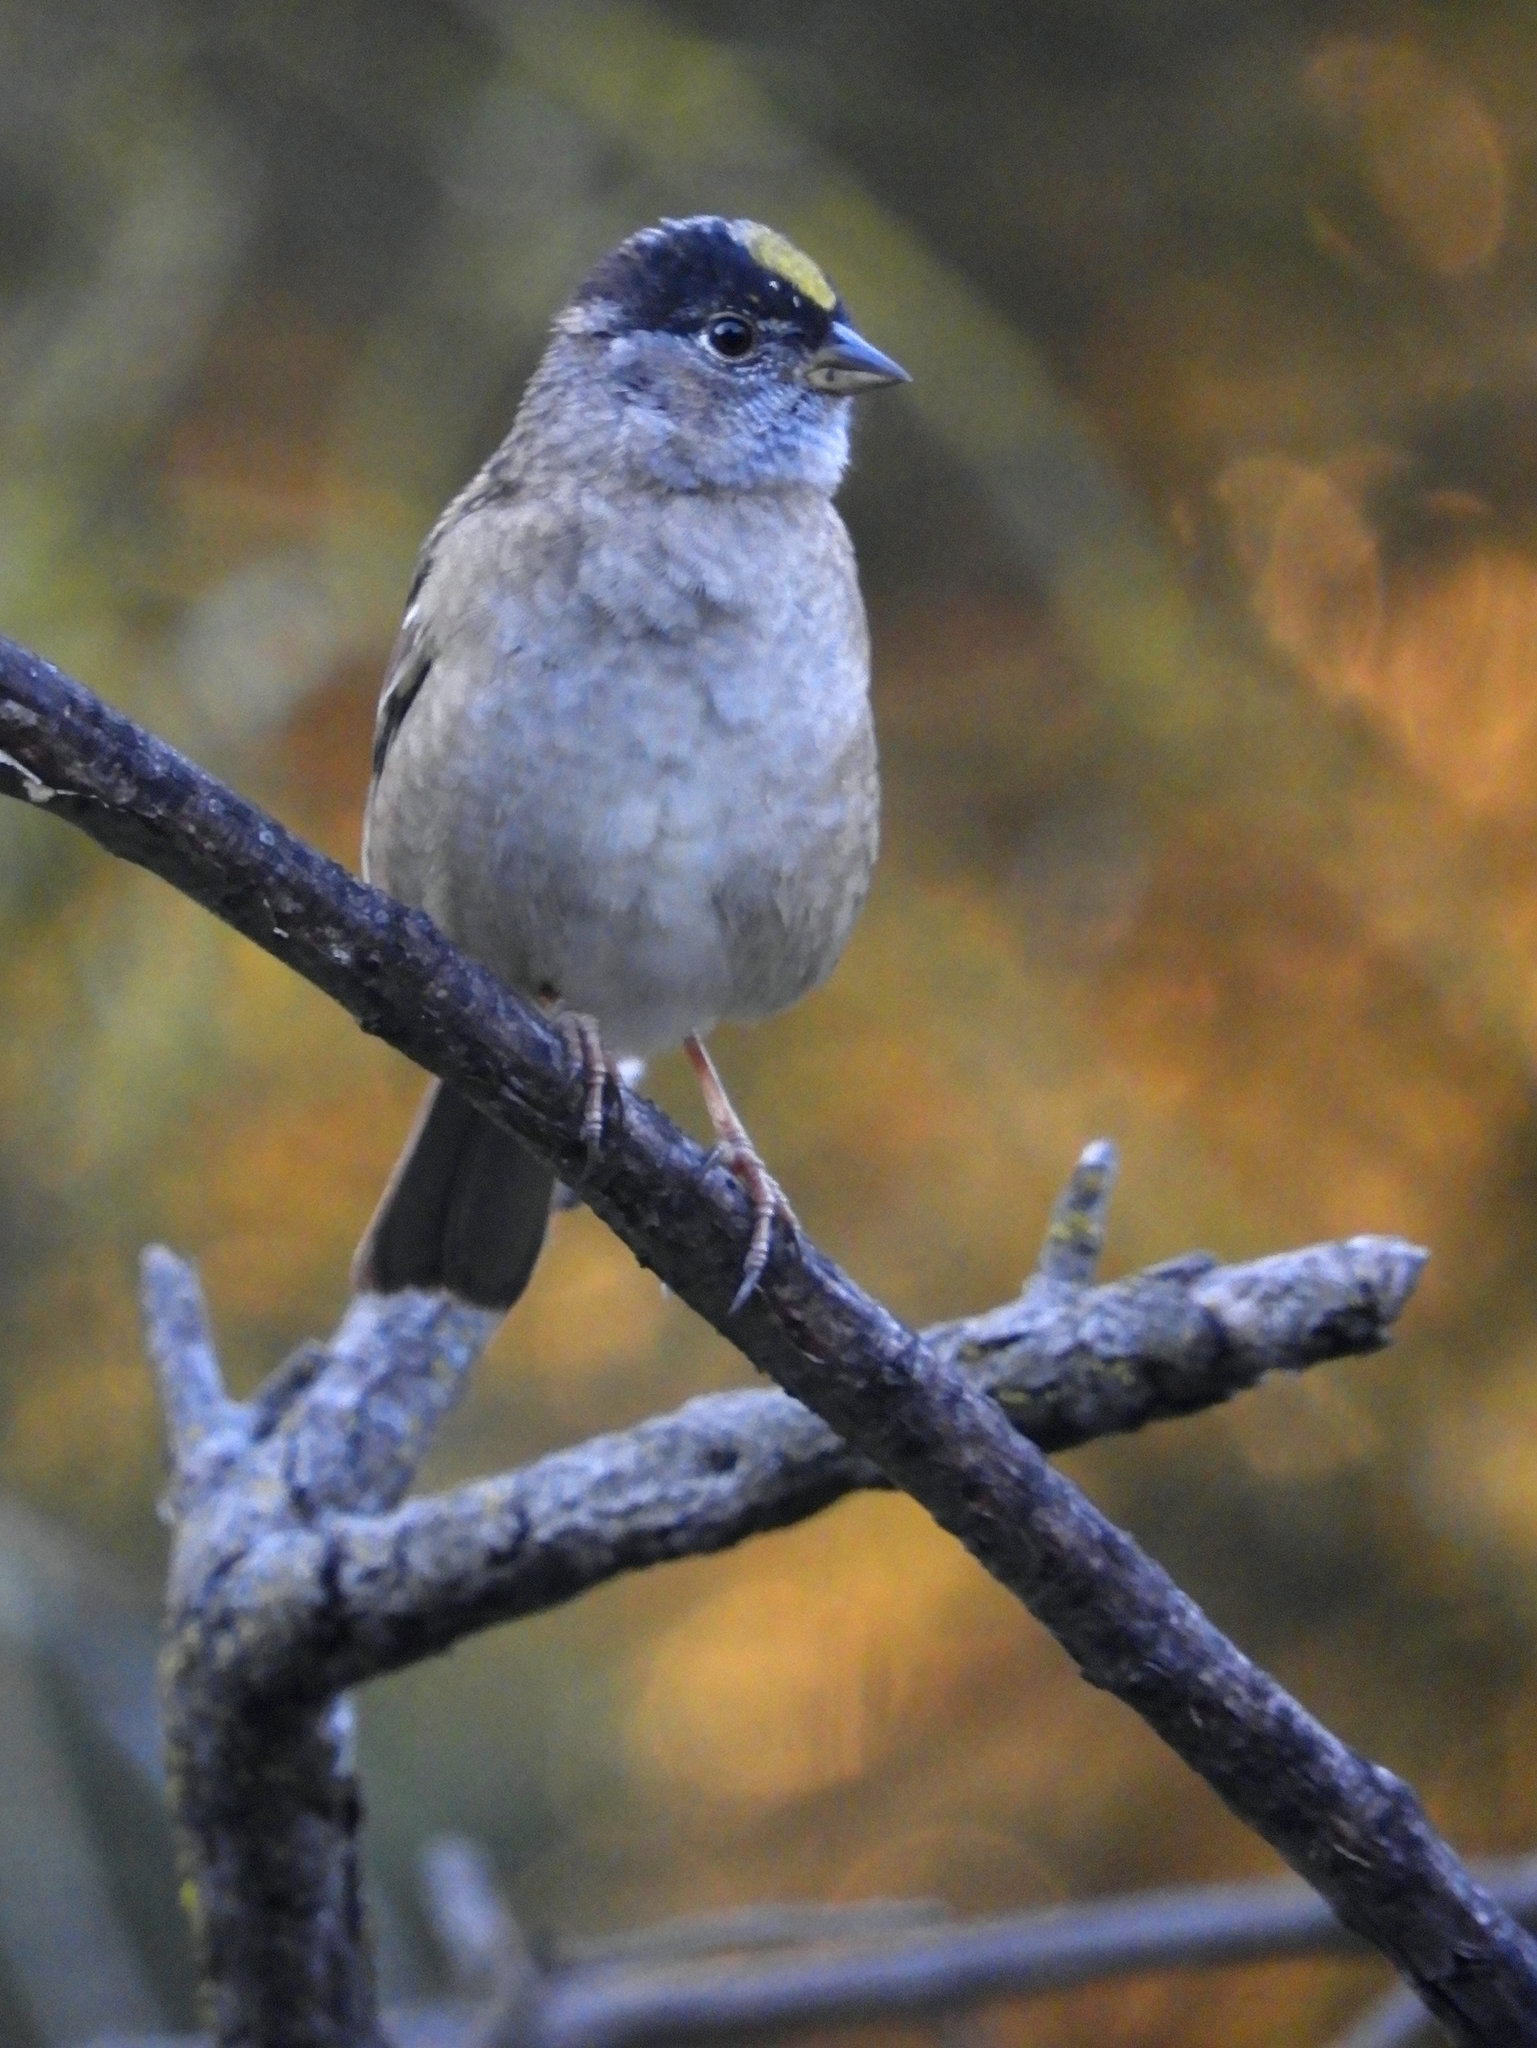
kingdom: Animalia
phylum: Chordata
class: Aves
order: Passeriformes
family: Passerellidae
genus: Zonotrichia
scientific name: Zonotrichia atricapilla
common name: Golden-crowned sparrow
